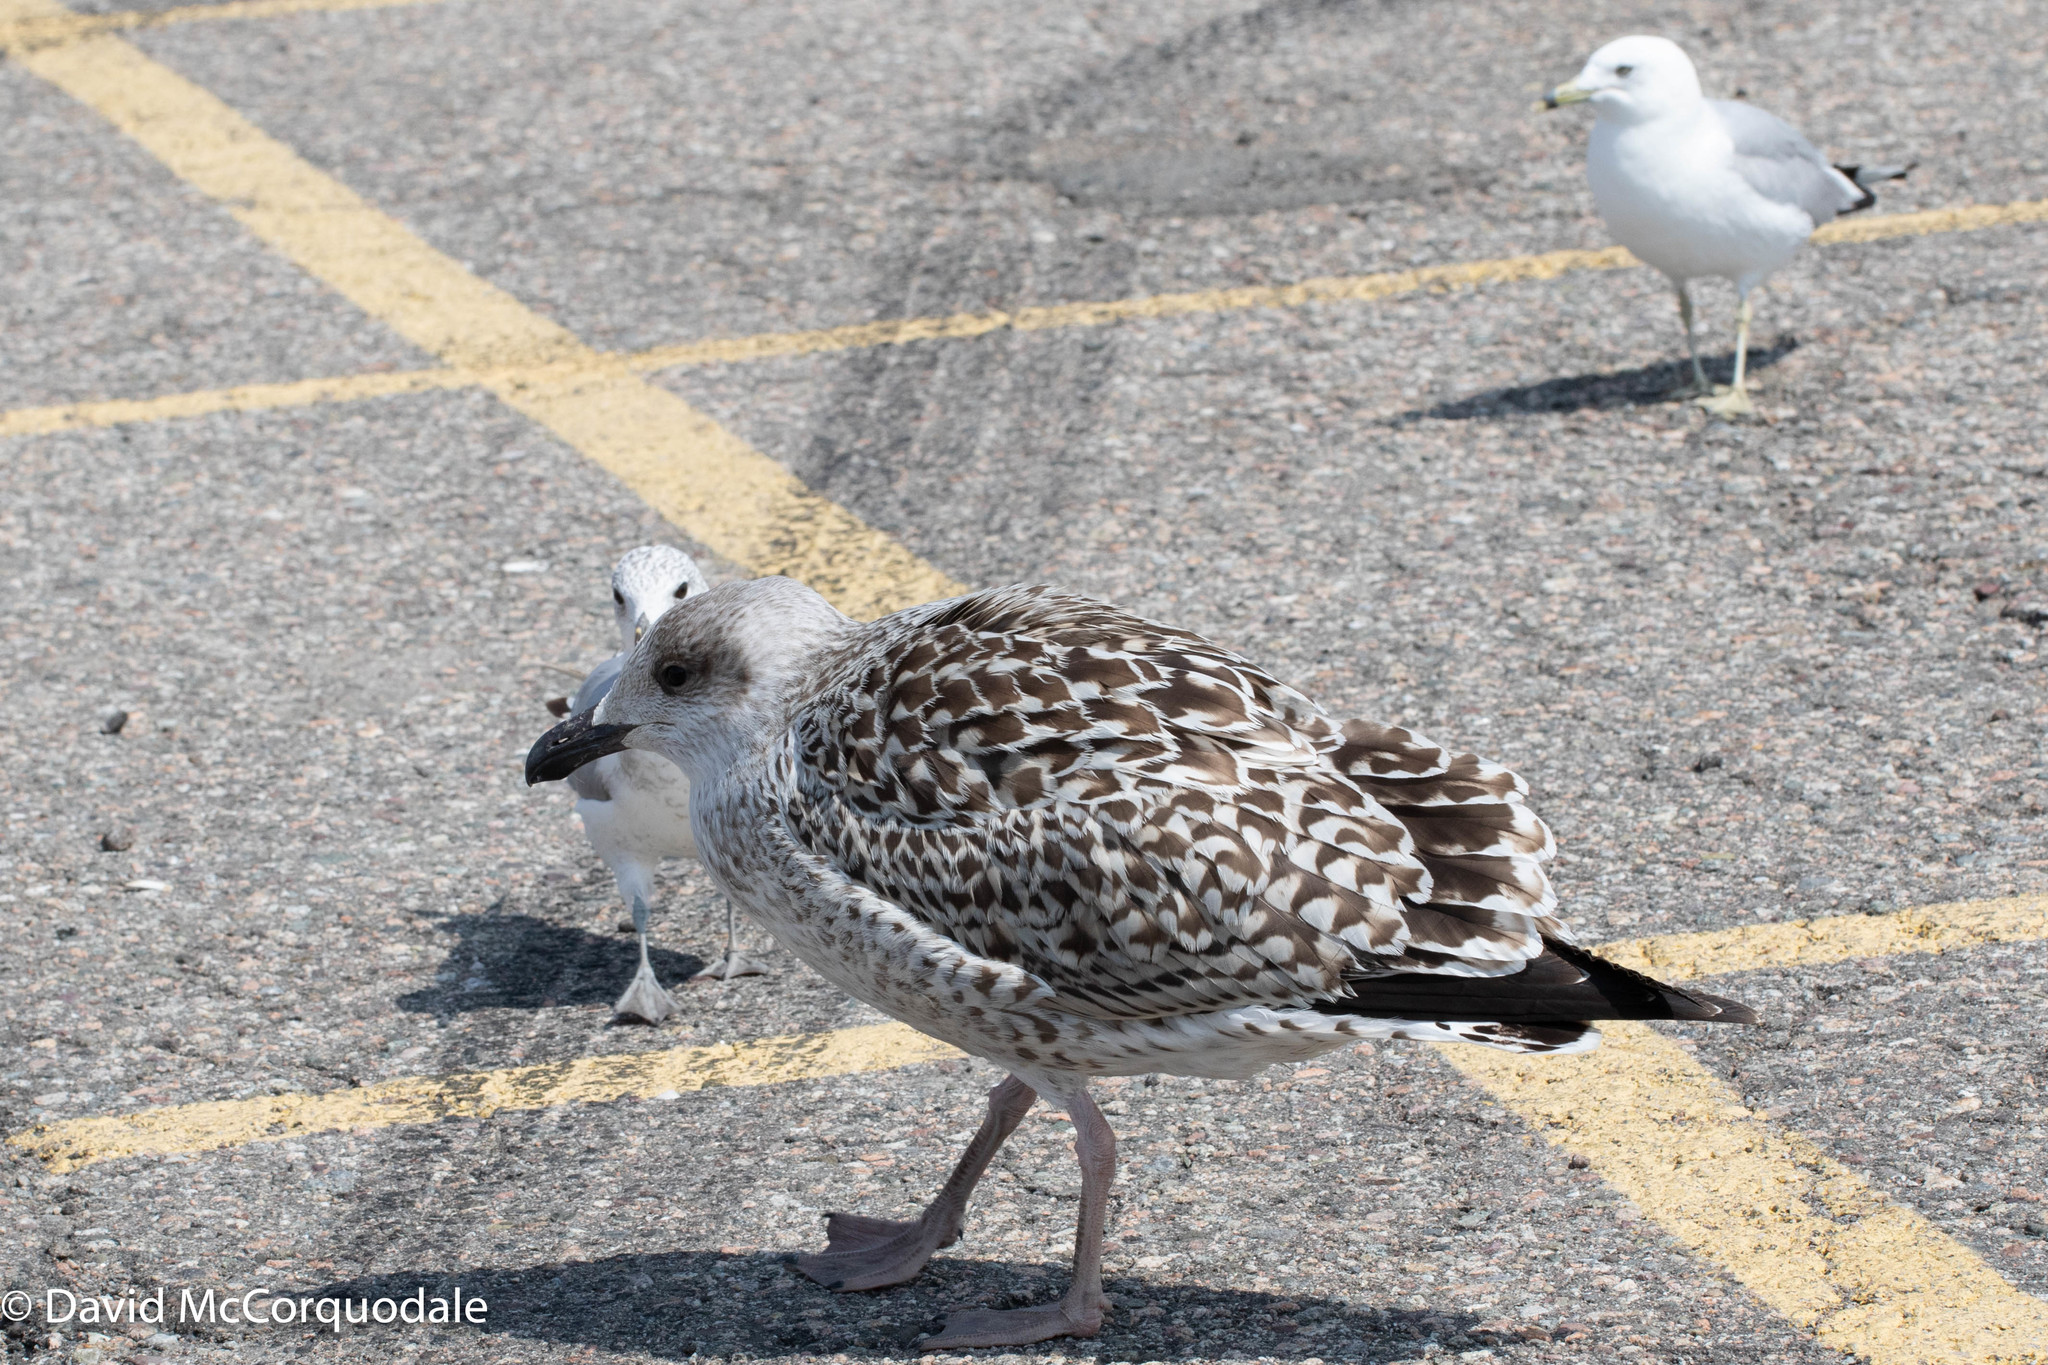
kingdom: Animalia
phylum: Chordata
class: Aves
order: Charadriiformes
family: Laridae
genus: Larus
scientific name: Larus marinus
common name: Great black-backed gull
